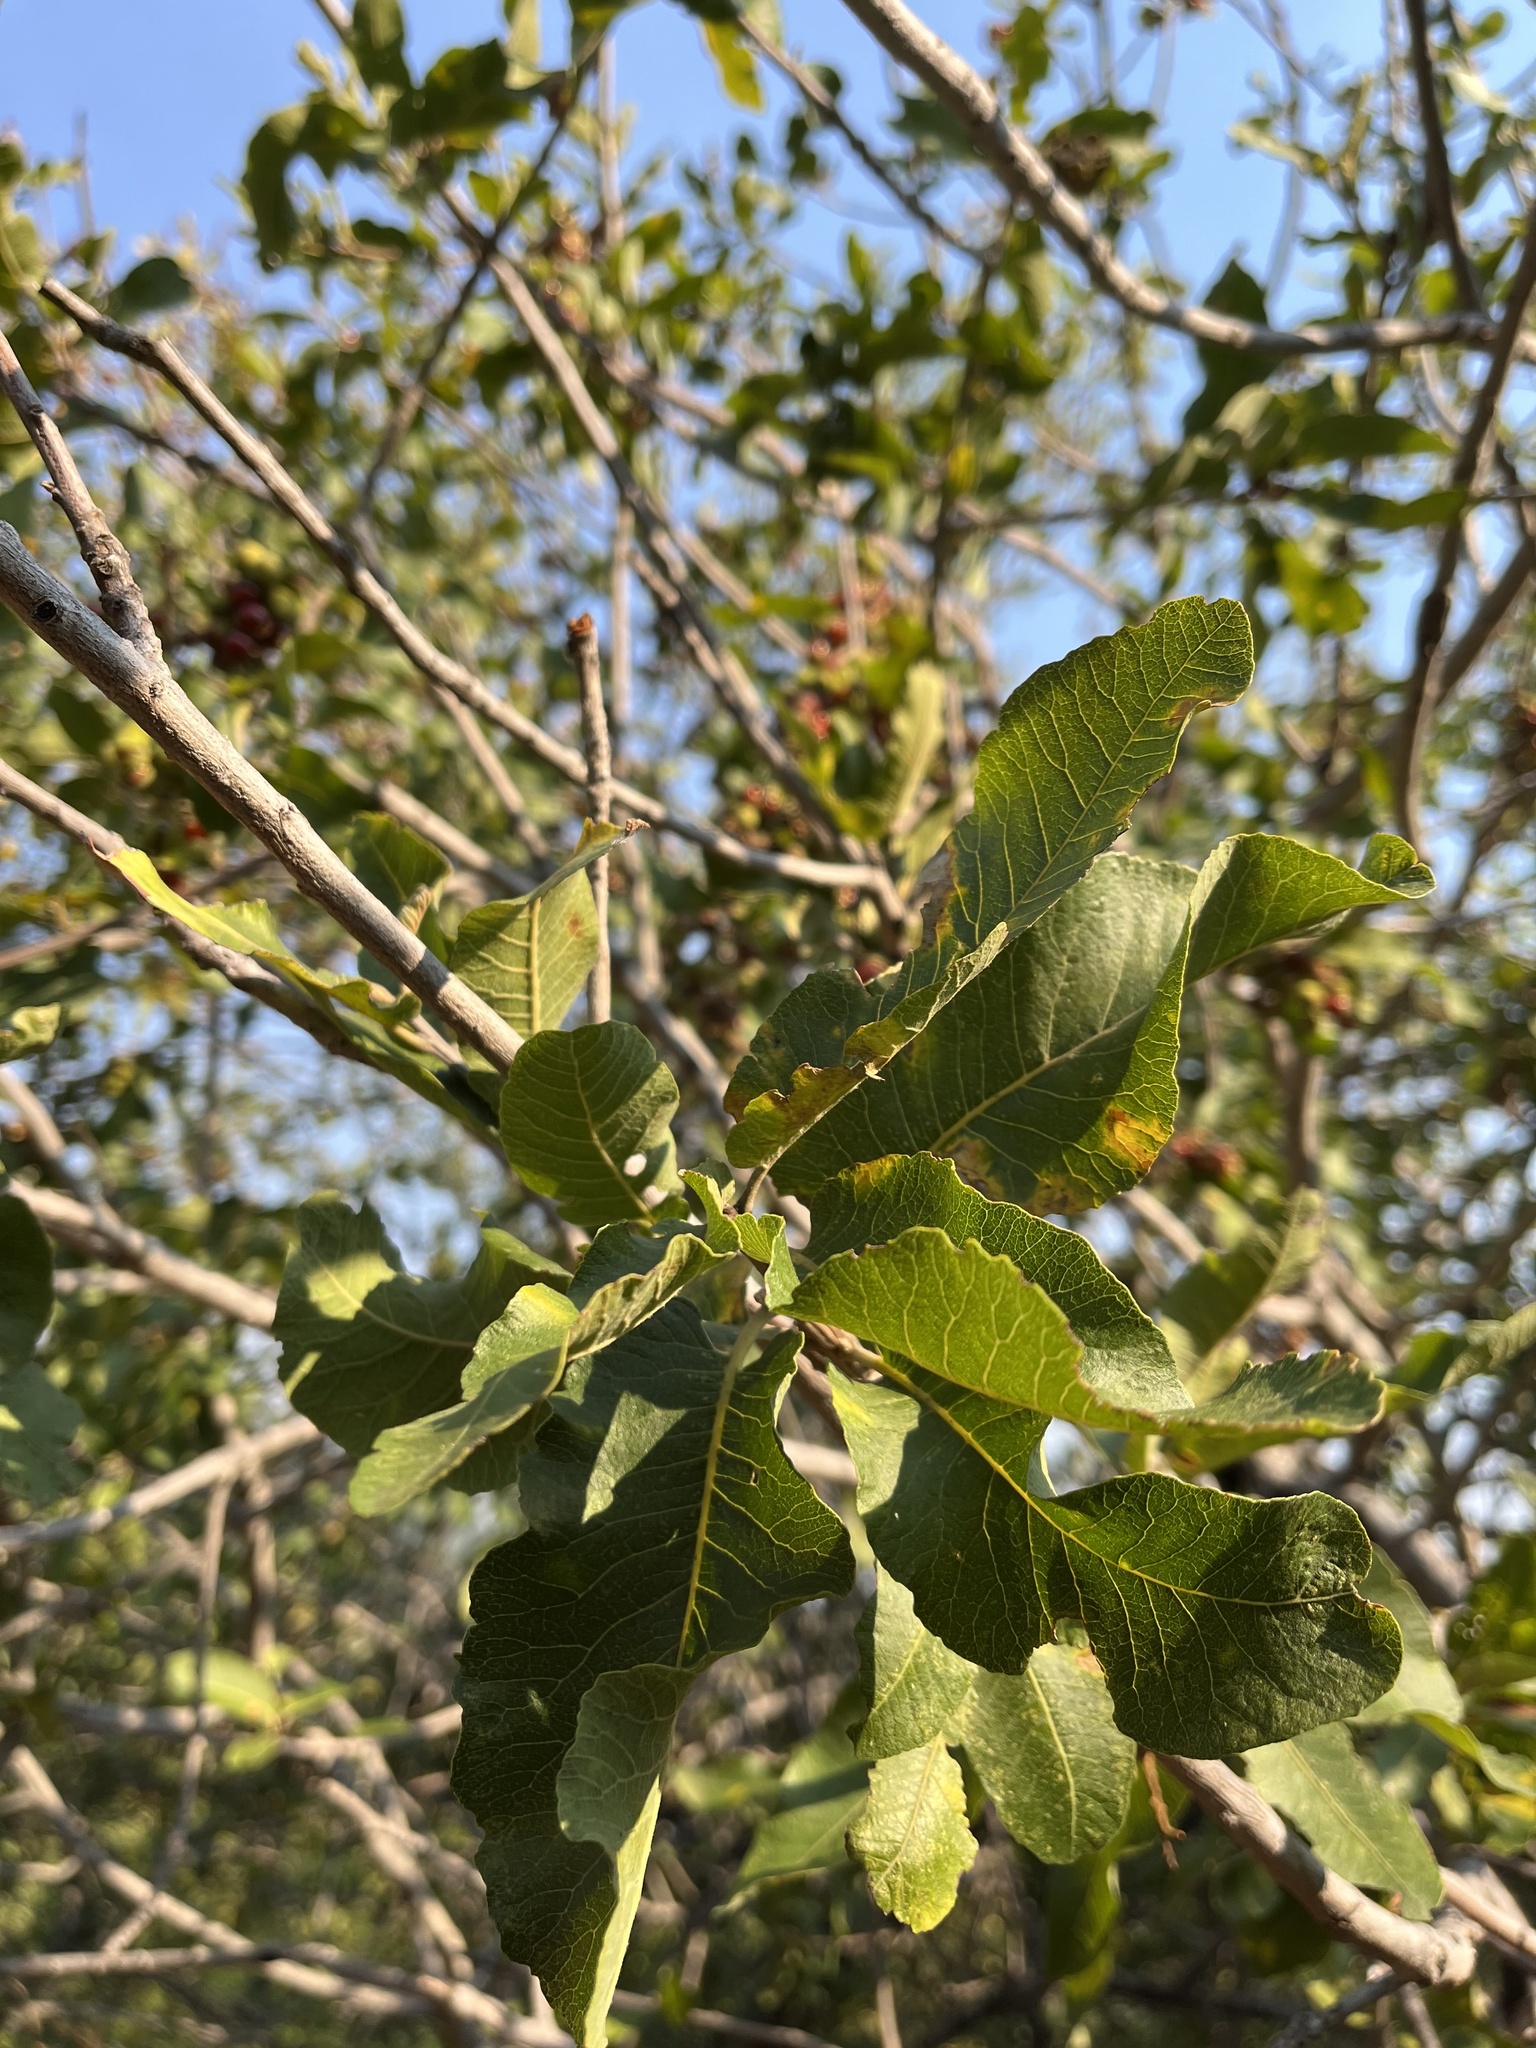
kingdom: Plantae
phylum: Tracheophyta
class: Magnoliopsida
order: Sapindales
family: Sapindaceae
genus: Pappea
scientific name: Pappea capensis
